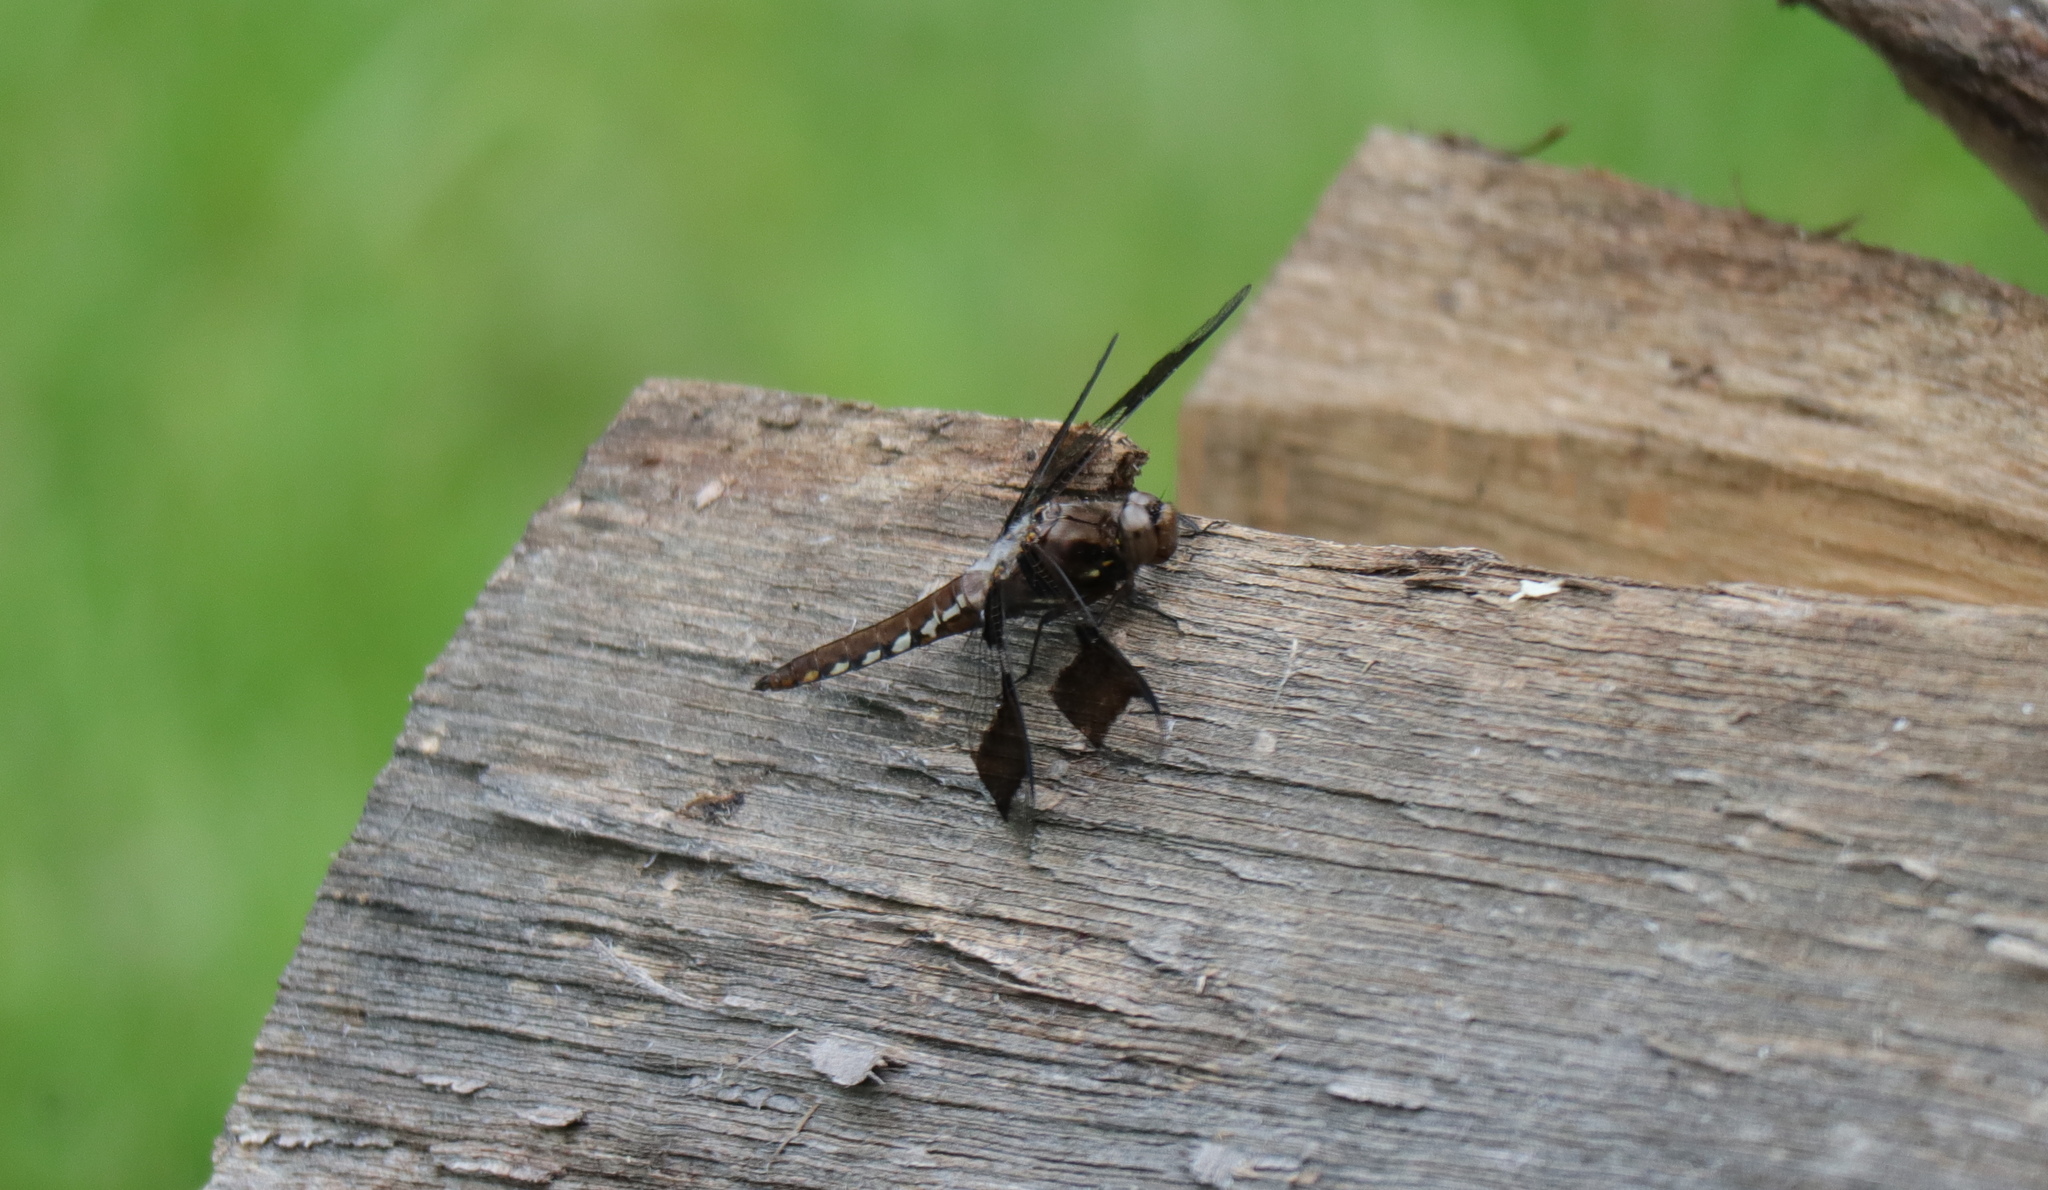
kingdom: Animalia
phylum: Arthropoda
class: Insecta
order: Odonata
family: Libellulidae
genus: Plathemis
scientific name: Plathemis lydia
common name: Common whitetail
